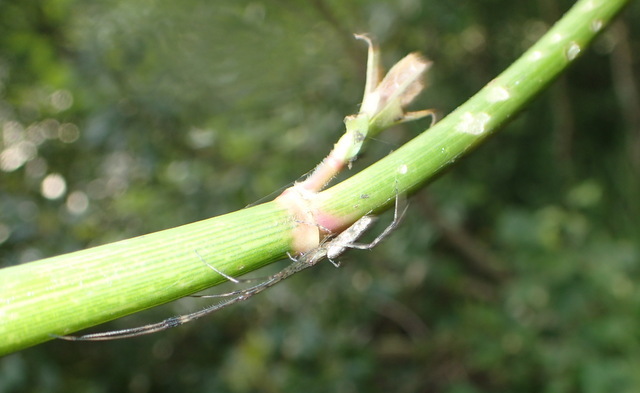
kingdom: Animalia
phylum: Arthropoda
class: Insecta
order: Coleoptera
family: Chrysomelidae
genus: Agasicles
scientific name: Agasicles hygrophila
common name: Alligatorweed flea beetle
